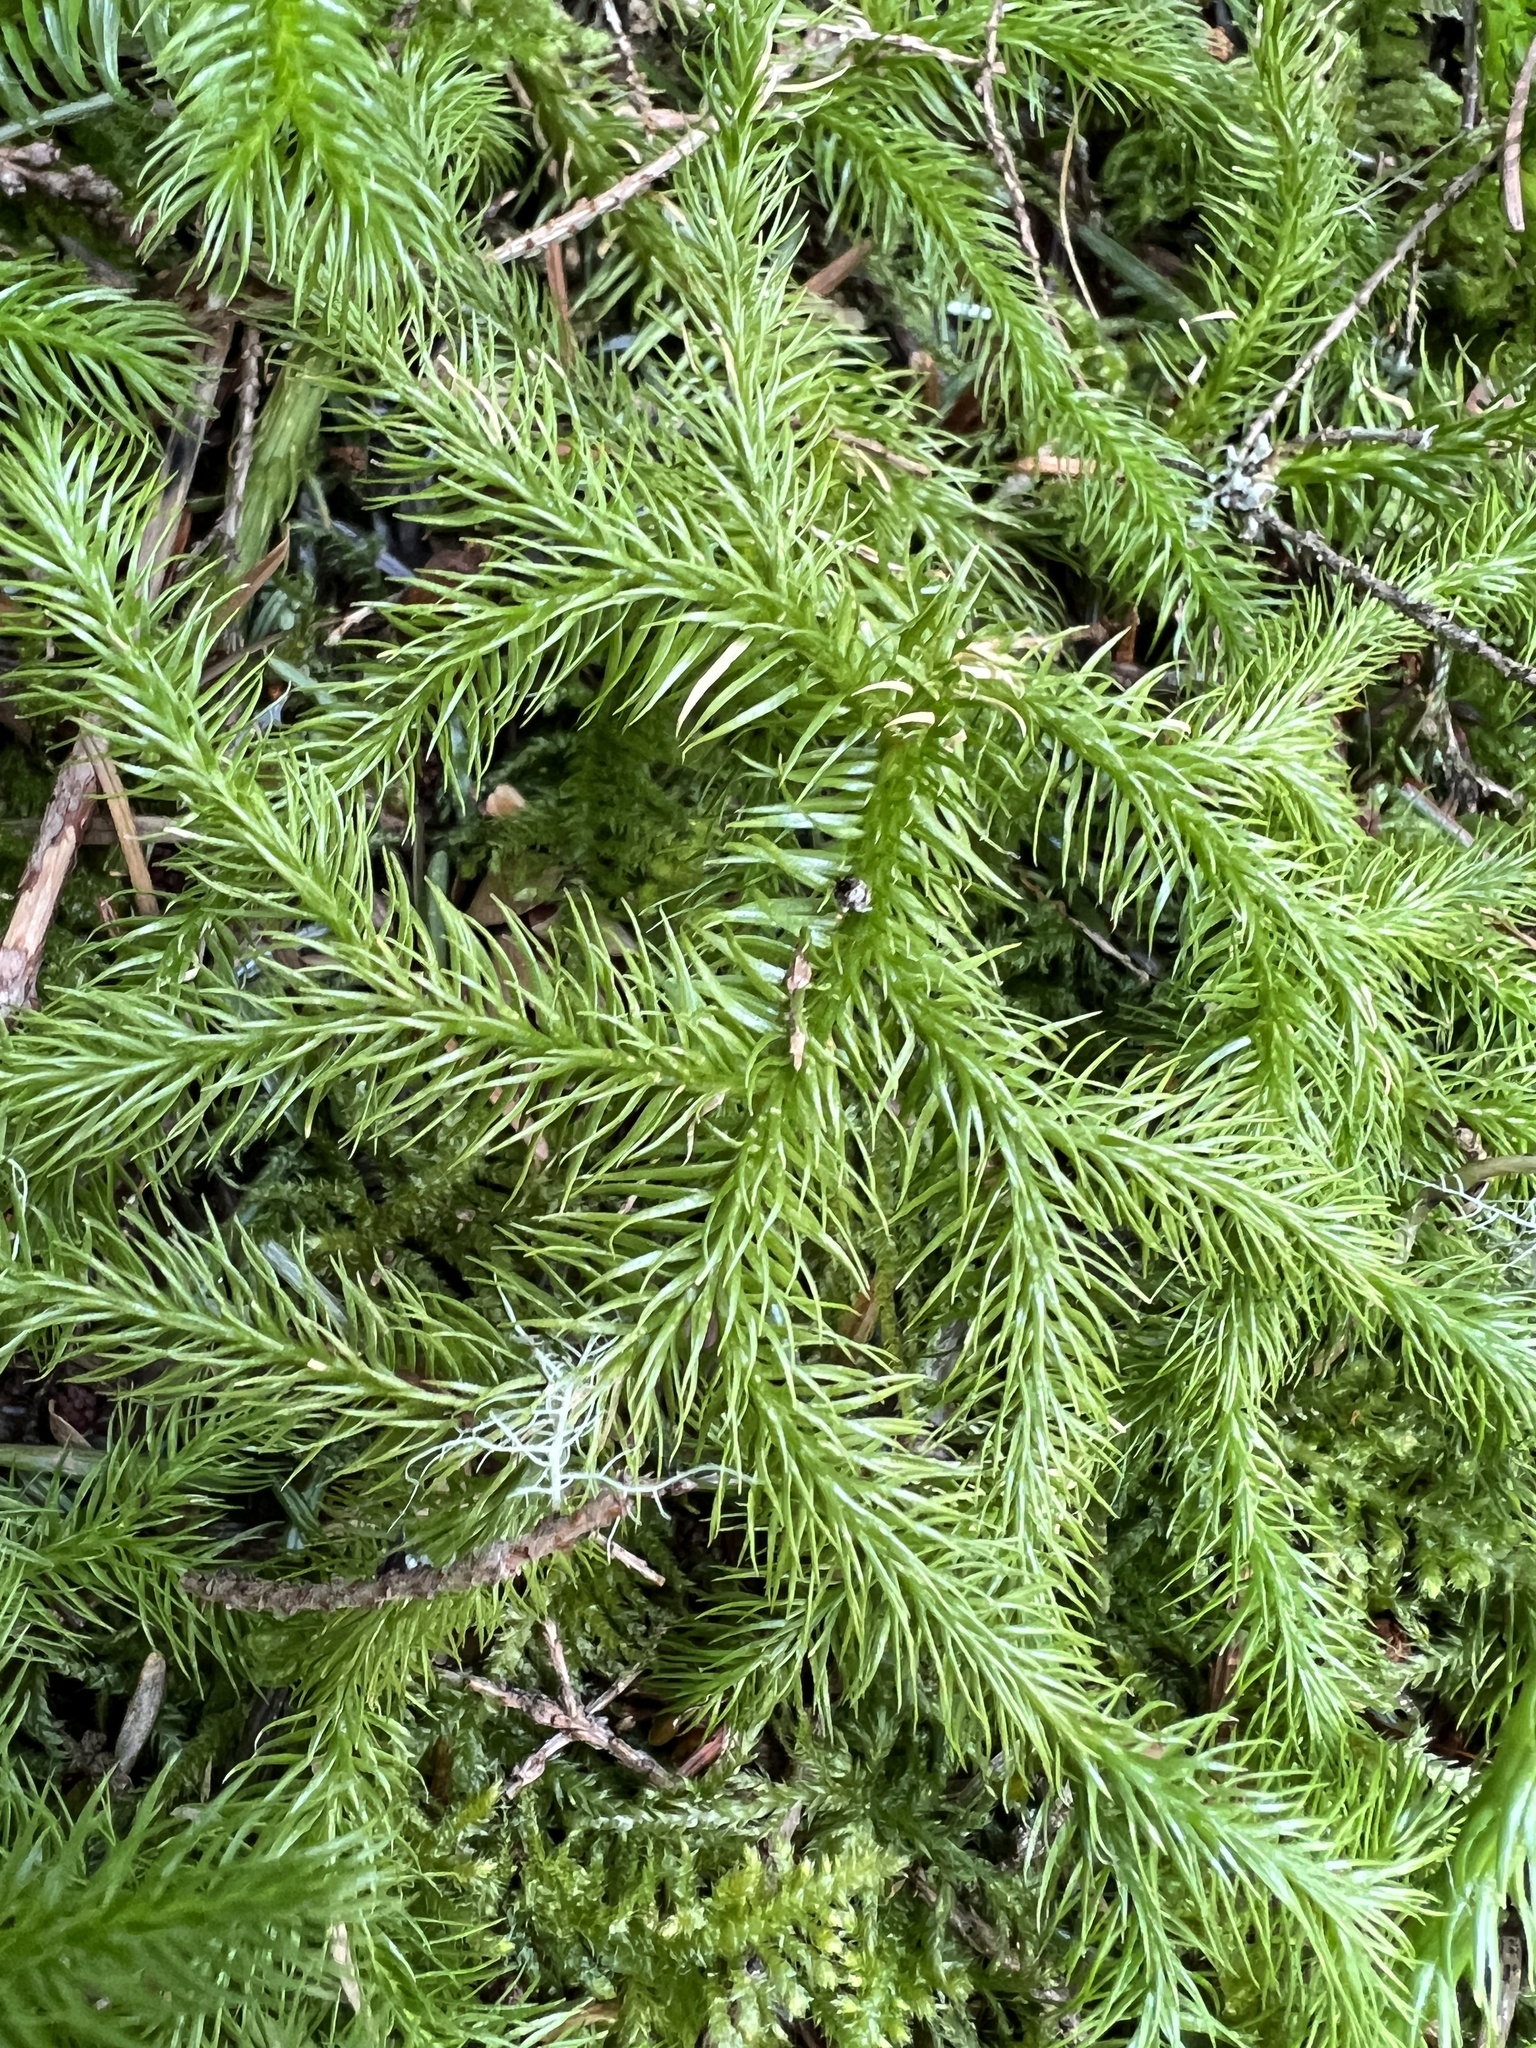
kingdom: Plantae
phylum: Tracheophyta
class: Lycopodiopsida
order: Lycopodiales
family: Lycopodiaceae
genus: Lycopodium
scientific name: Lycopodium clavatum
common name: Stag's-horn clubmoss
